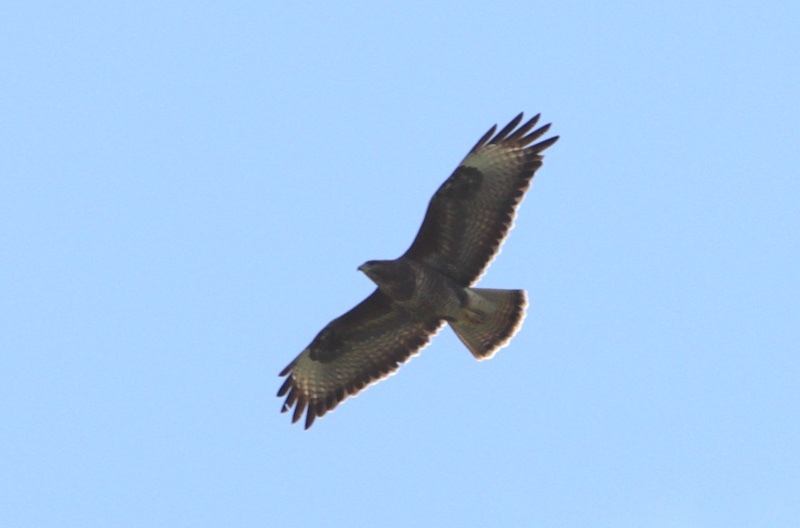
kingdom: Animalia
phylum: Chordata
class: Aves
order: Accipitriformes
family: Accipitridae
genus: Buteo
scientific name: Buteo buteo
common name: Common buzzard
